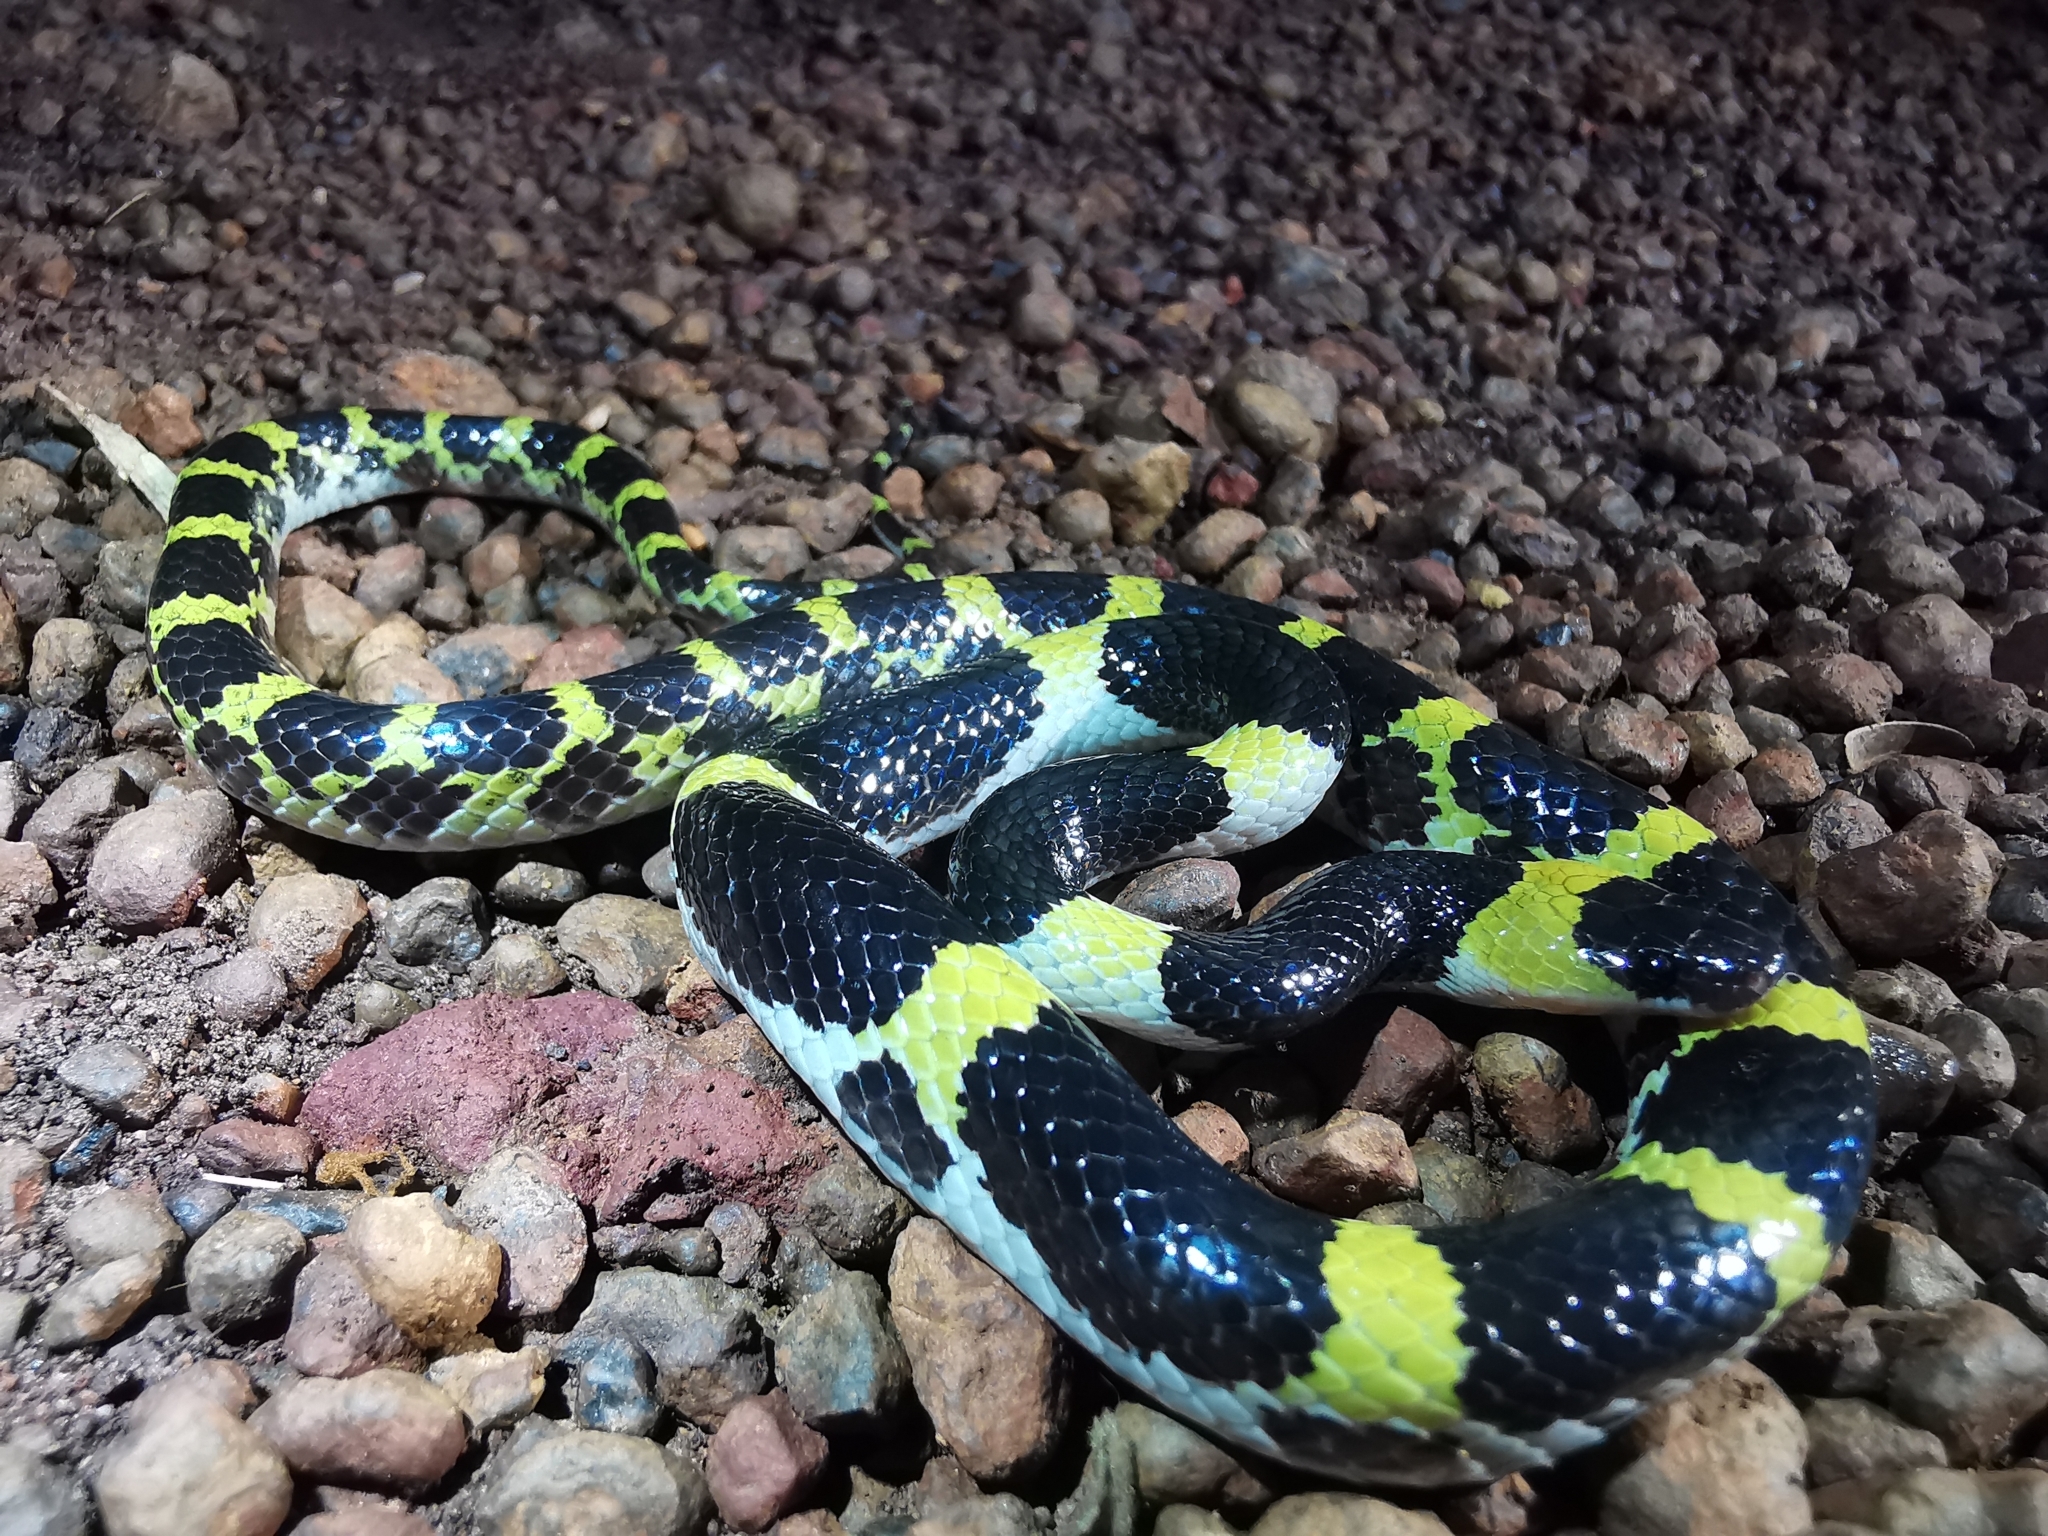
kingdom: Animalia
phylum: Chordata
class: Squamata
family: Colubridae
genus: Lycodon
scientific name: Lycodon laoensis
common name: Laotian wolf snake
